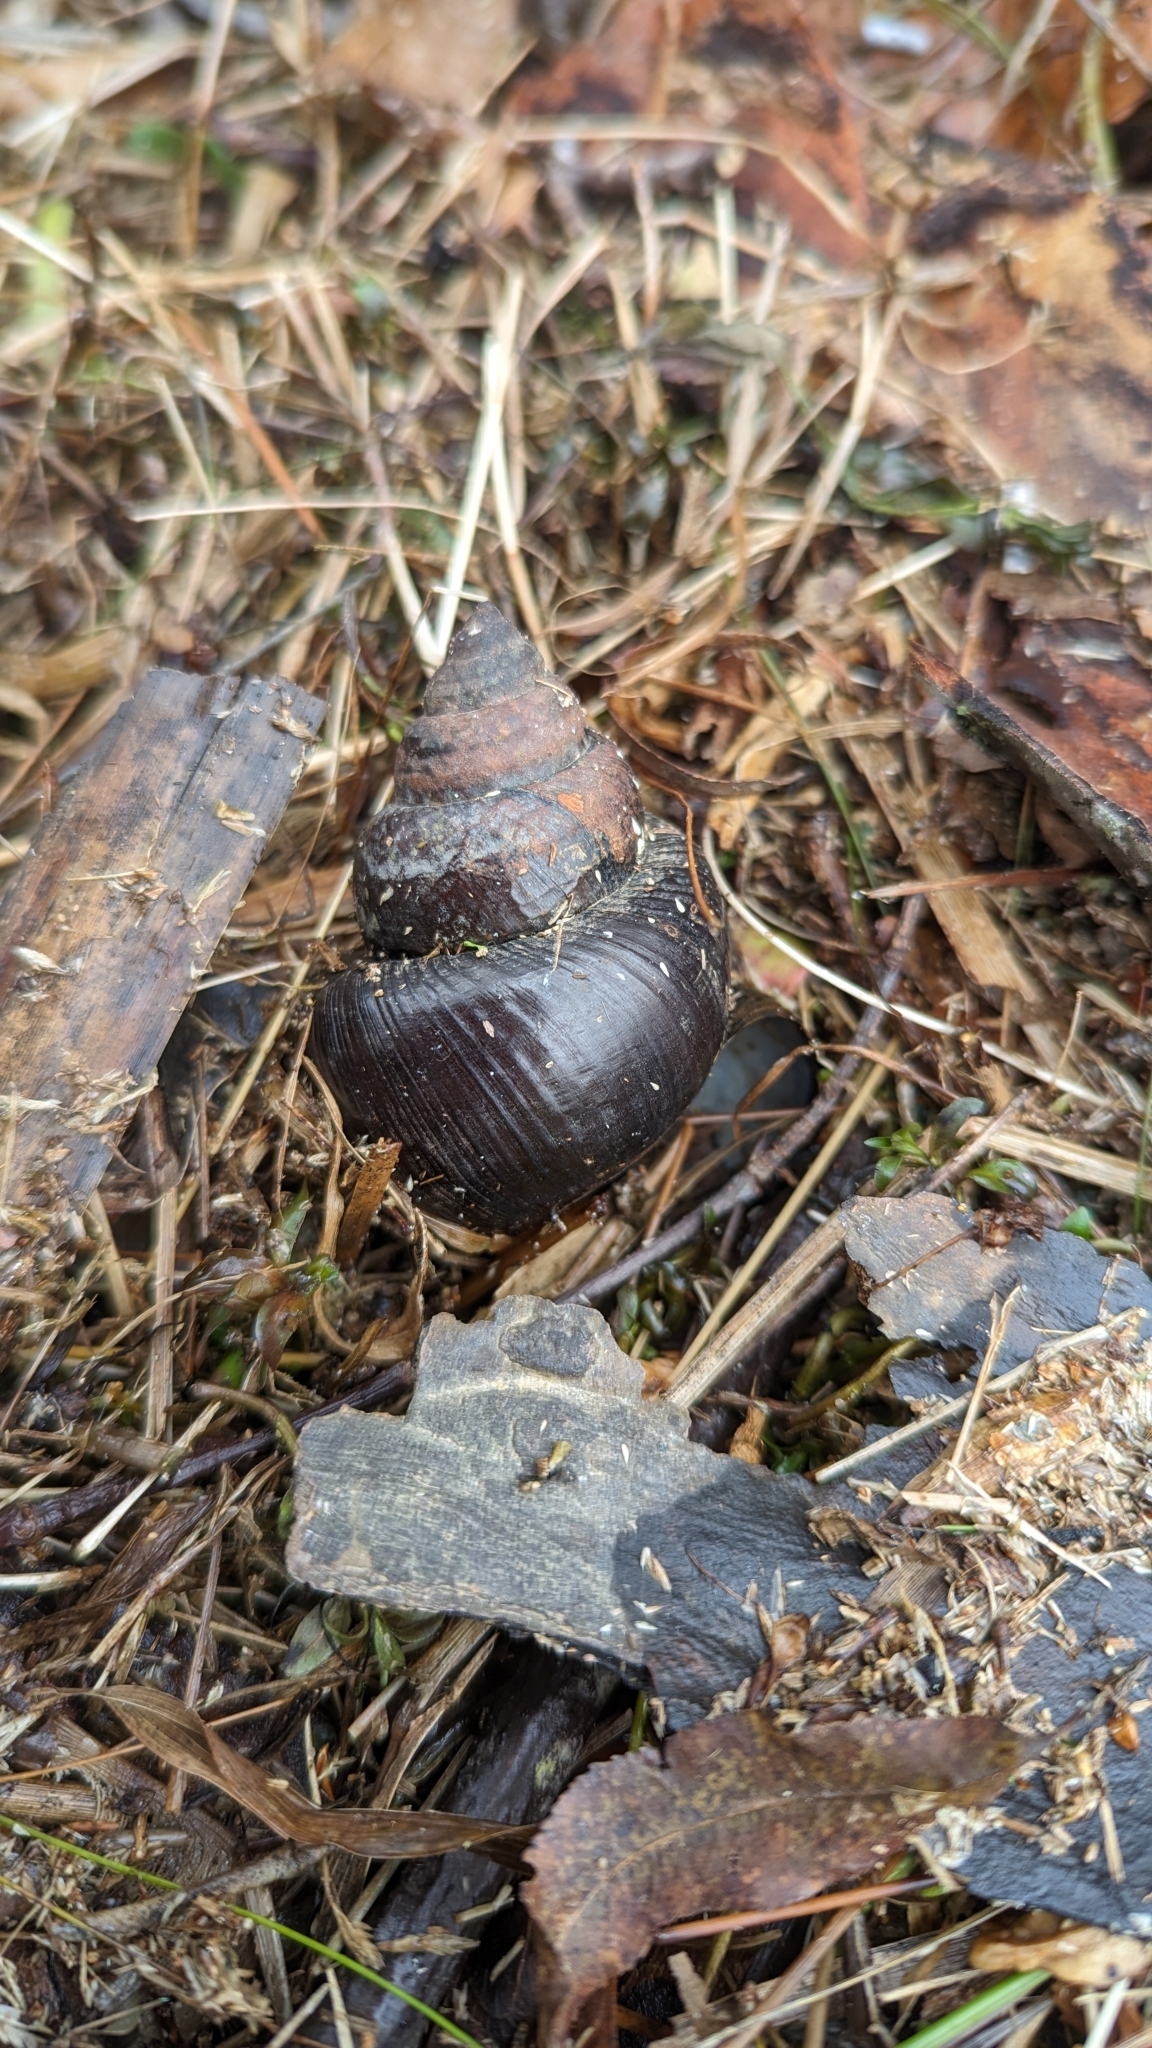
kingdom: Animalia
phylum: Mollusca
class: Gastropoda
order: Architaenioglossa
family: Viviparidae
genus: Cipangopaludina
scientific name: Cipangopaludina chinensis
